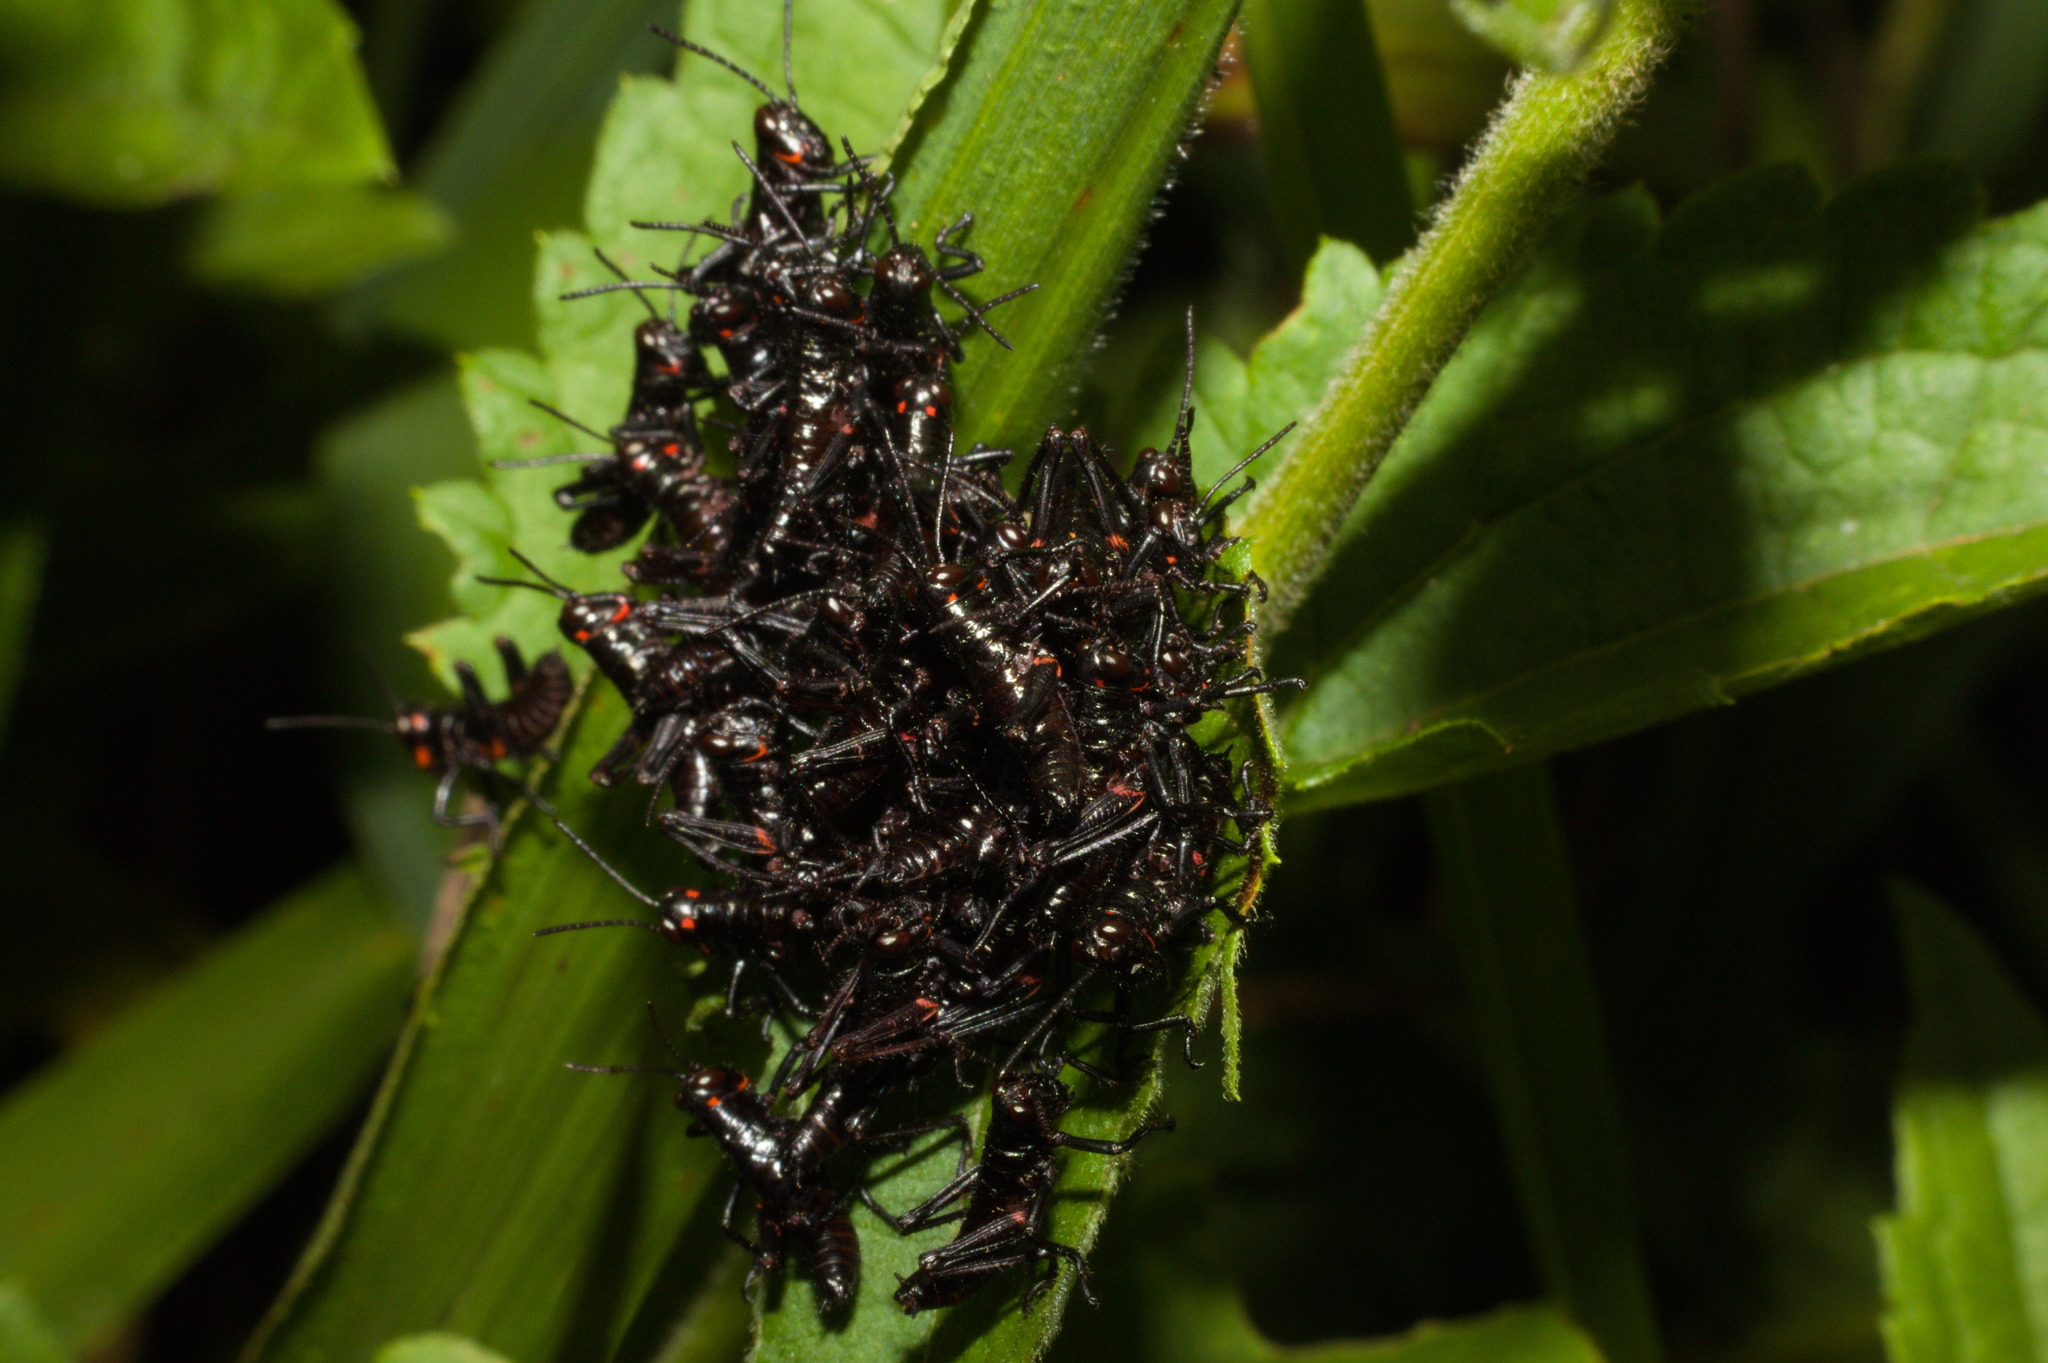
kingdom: Animalia
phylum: Arthropoda
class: Insecta
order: Orthoptera
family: Romaleidae
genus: Chromacris
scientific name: Chromacris speciosa
